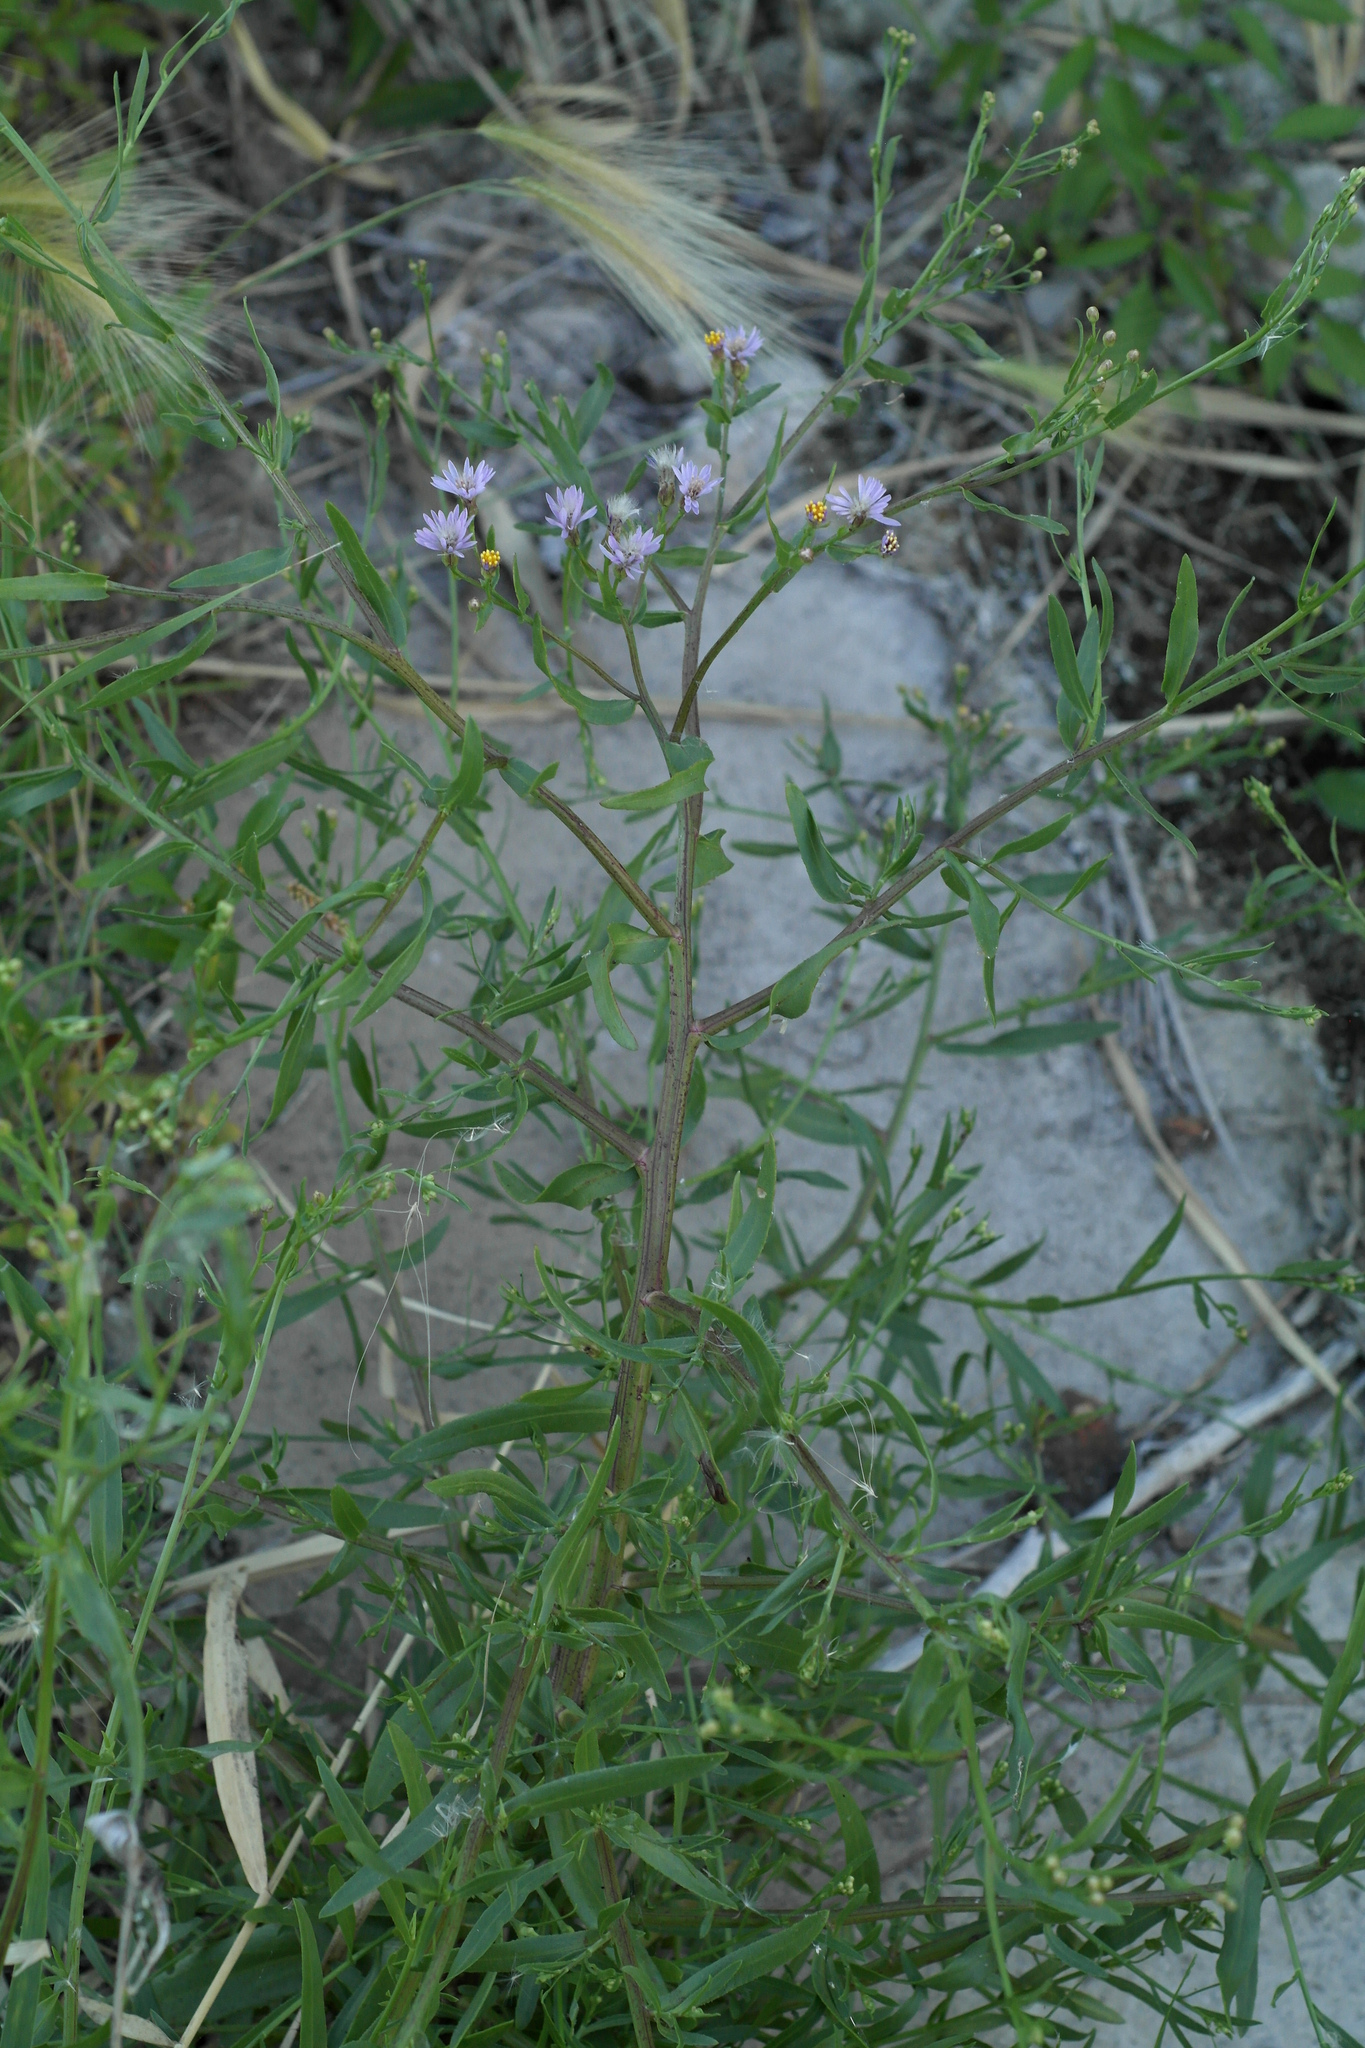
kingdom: Plantae
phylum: Tracheophyta
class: Magnoliopsida
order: Asterales
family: Asteraceae
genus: Tripolium
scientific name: Tripolium pannonicum
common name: Sea aster
